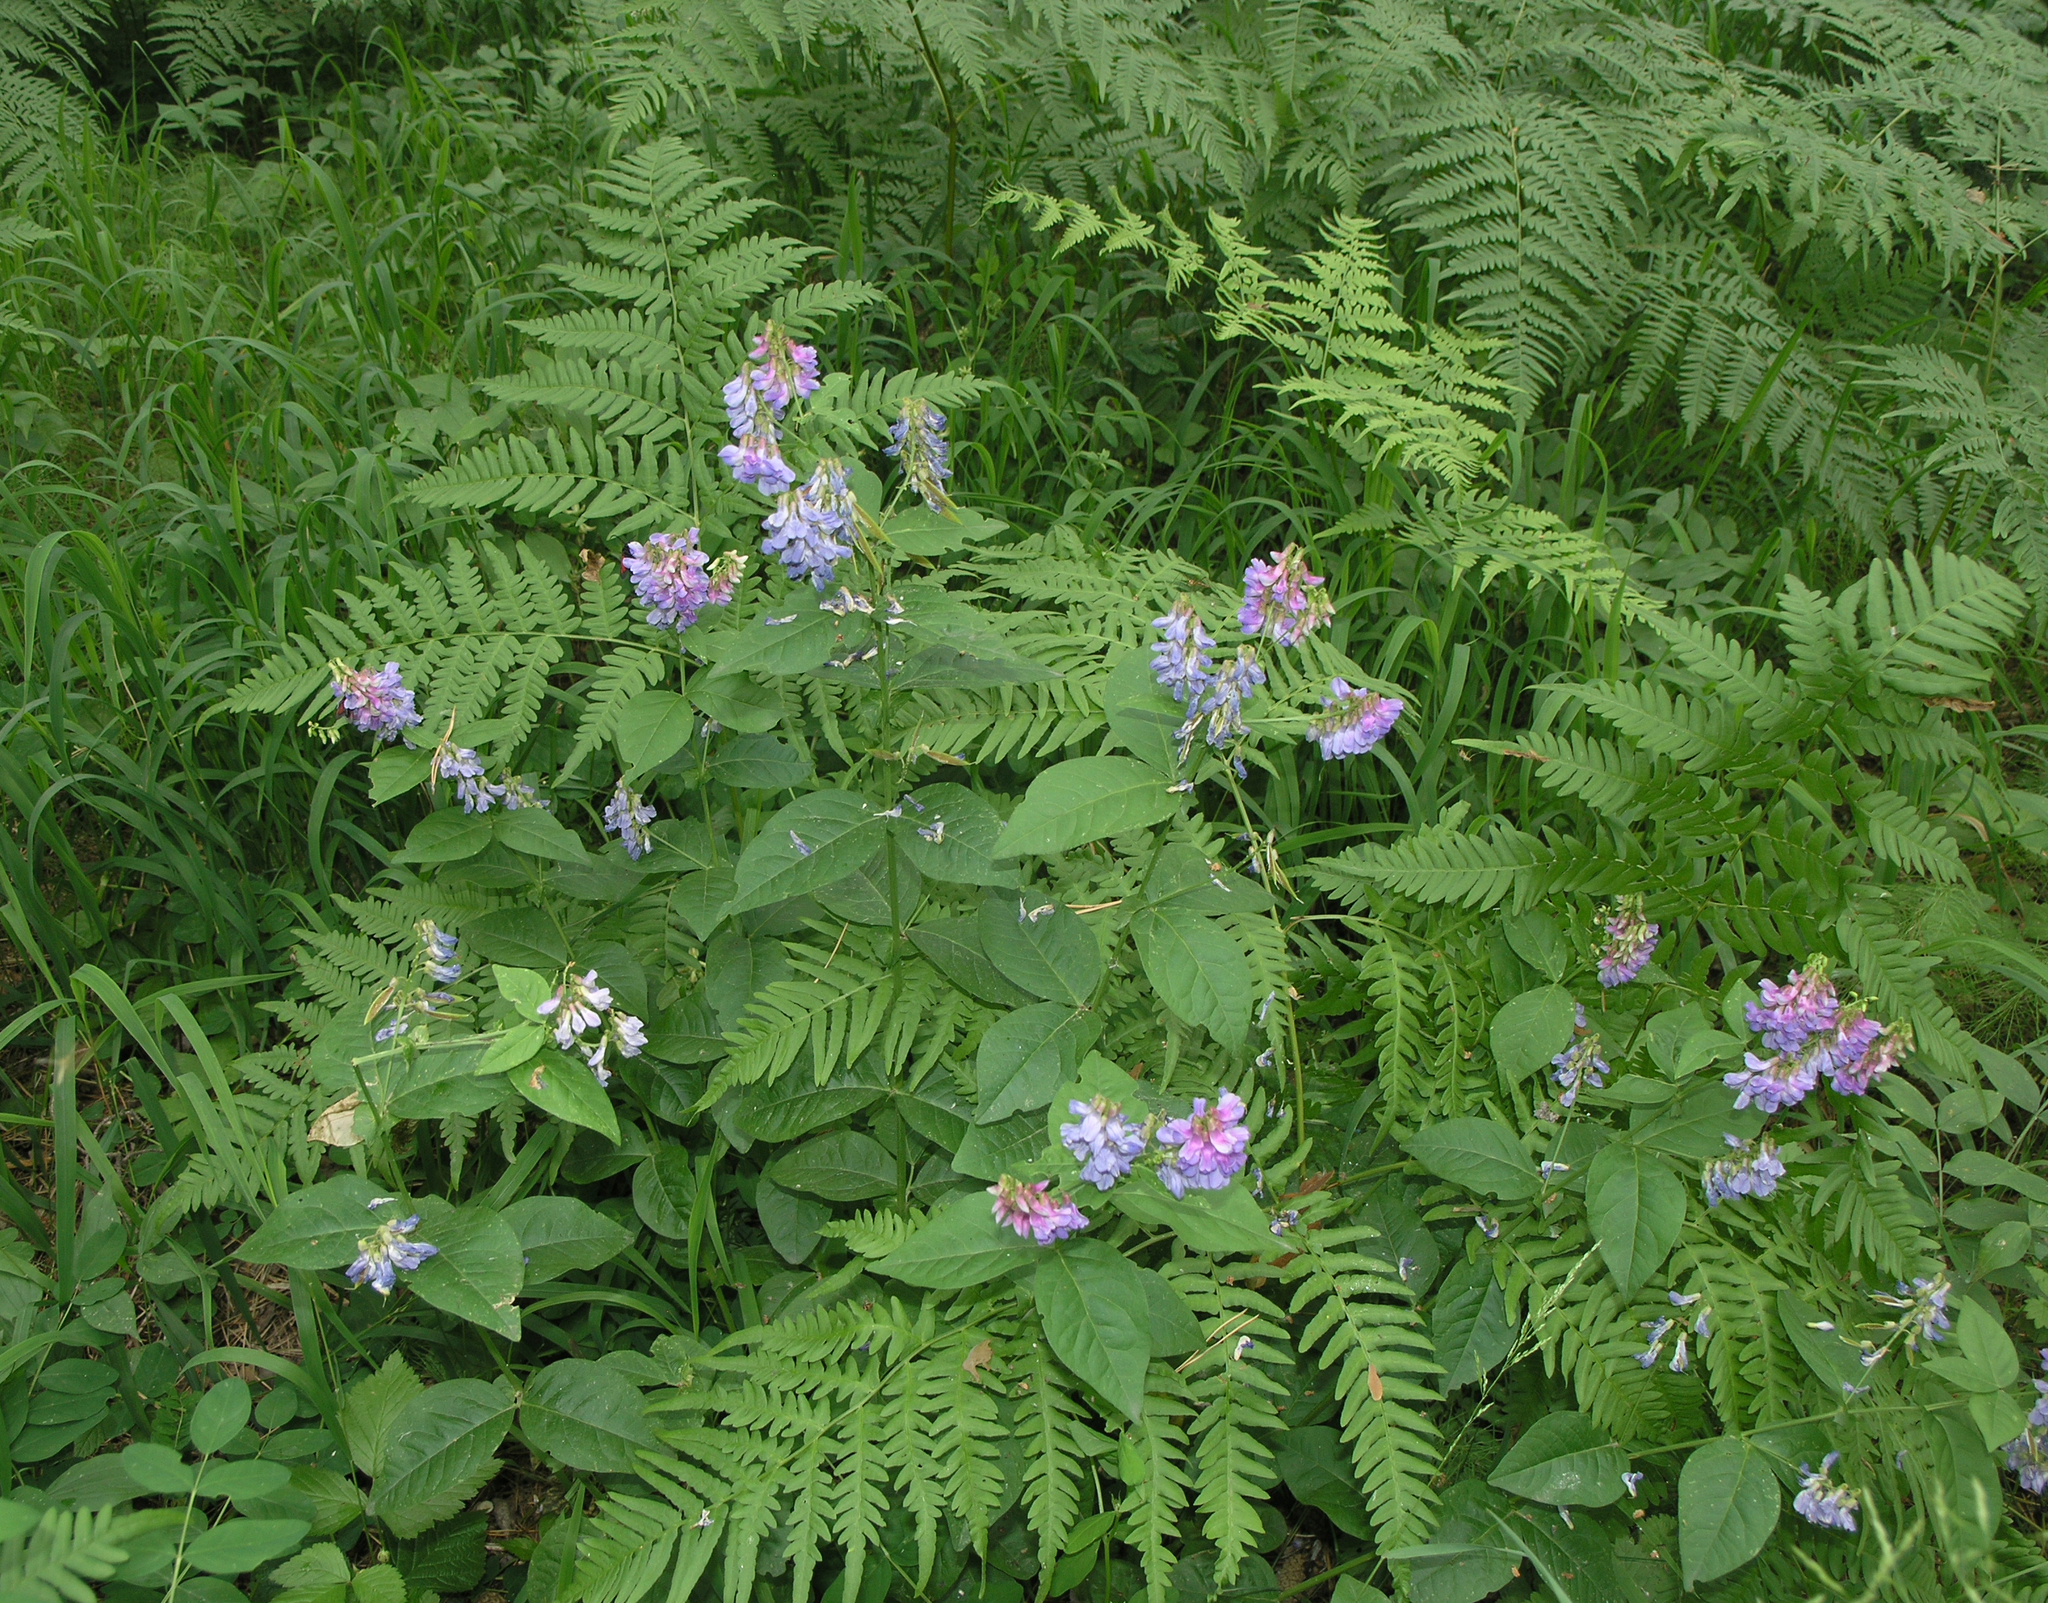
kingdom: Plantae
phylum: Tracheophyta
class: Magnoliopsida
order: Fabales
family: Fabaceae
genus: Vicia
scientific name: Vicia unijuga
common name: Two-leaf vetch
